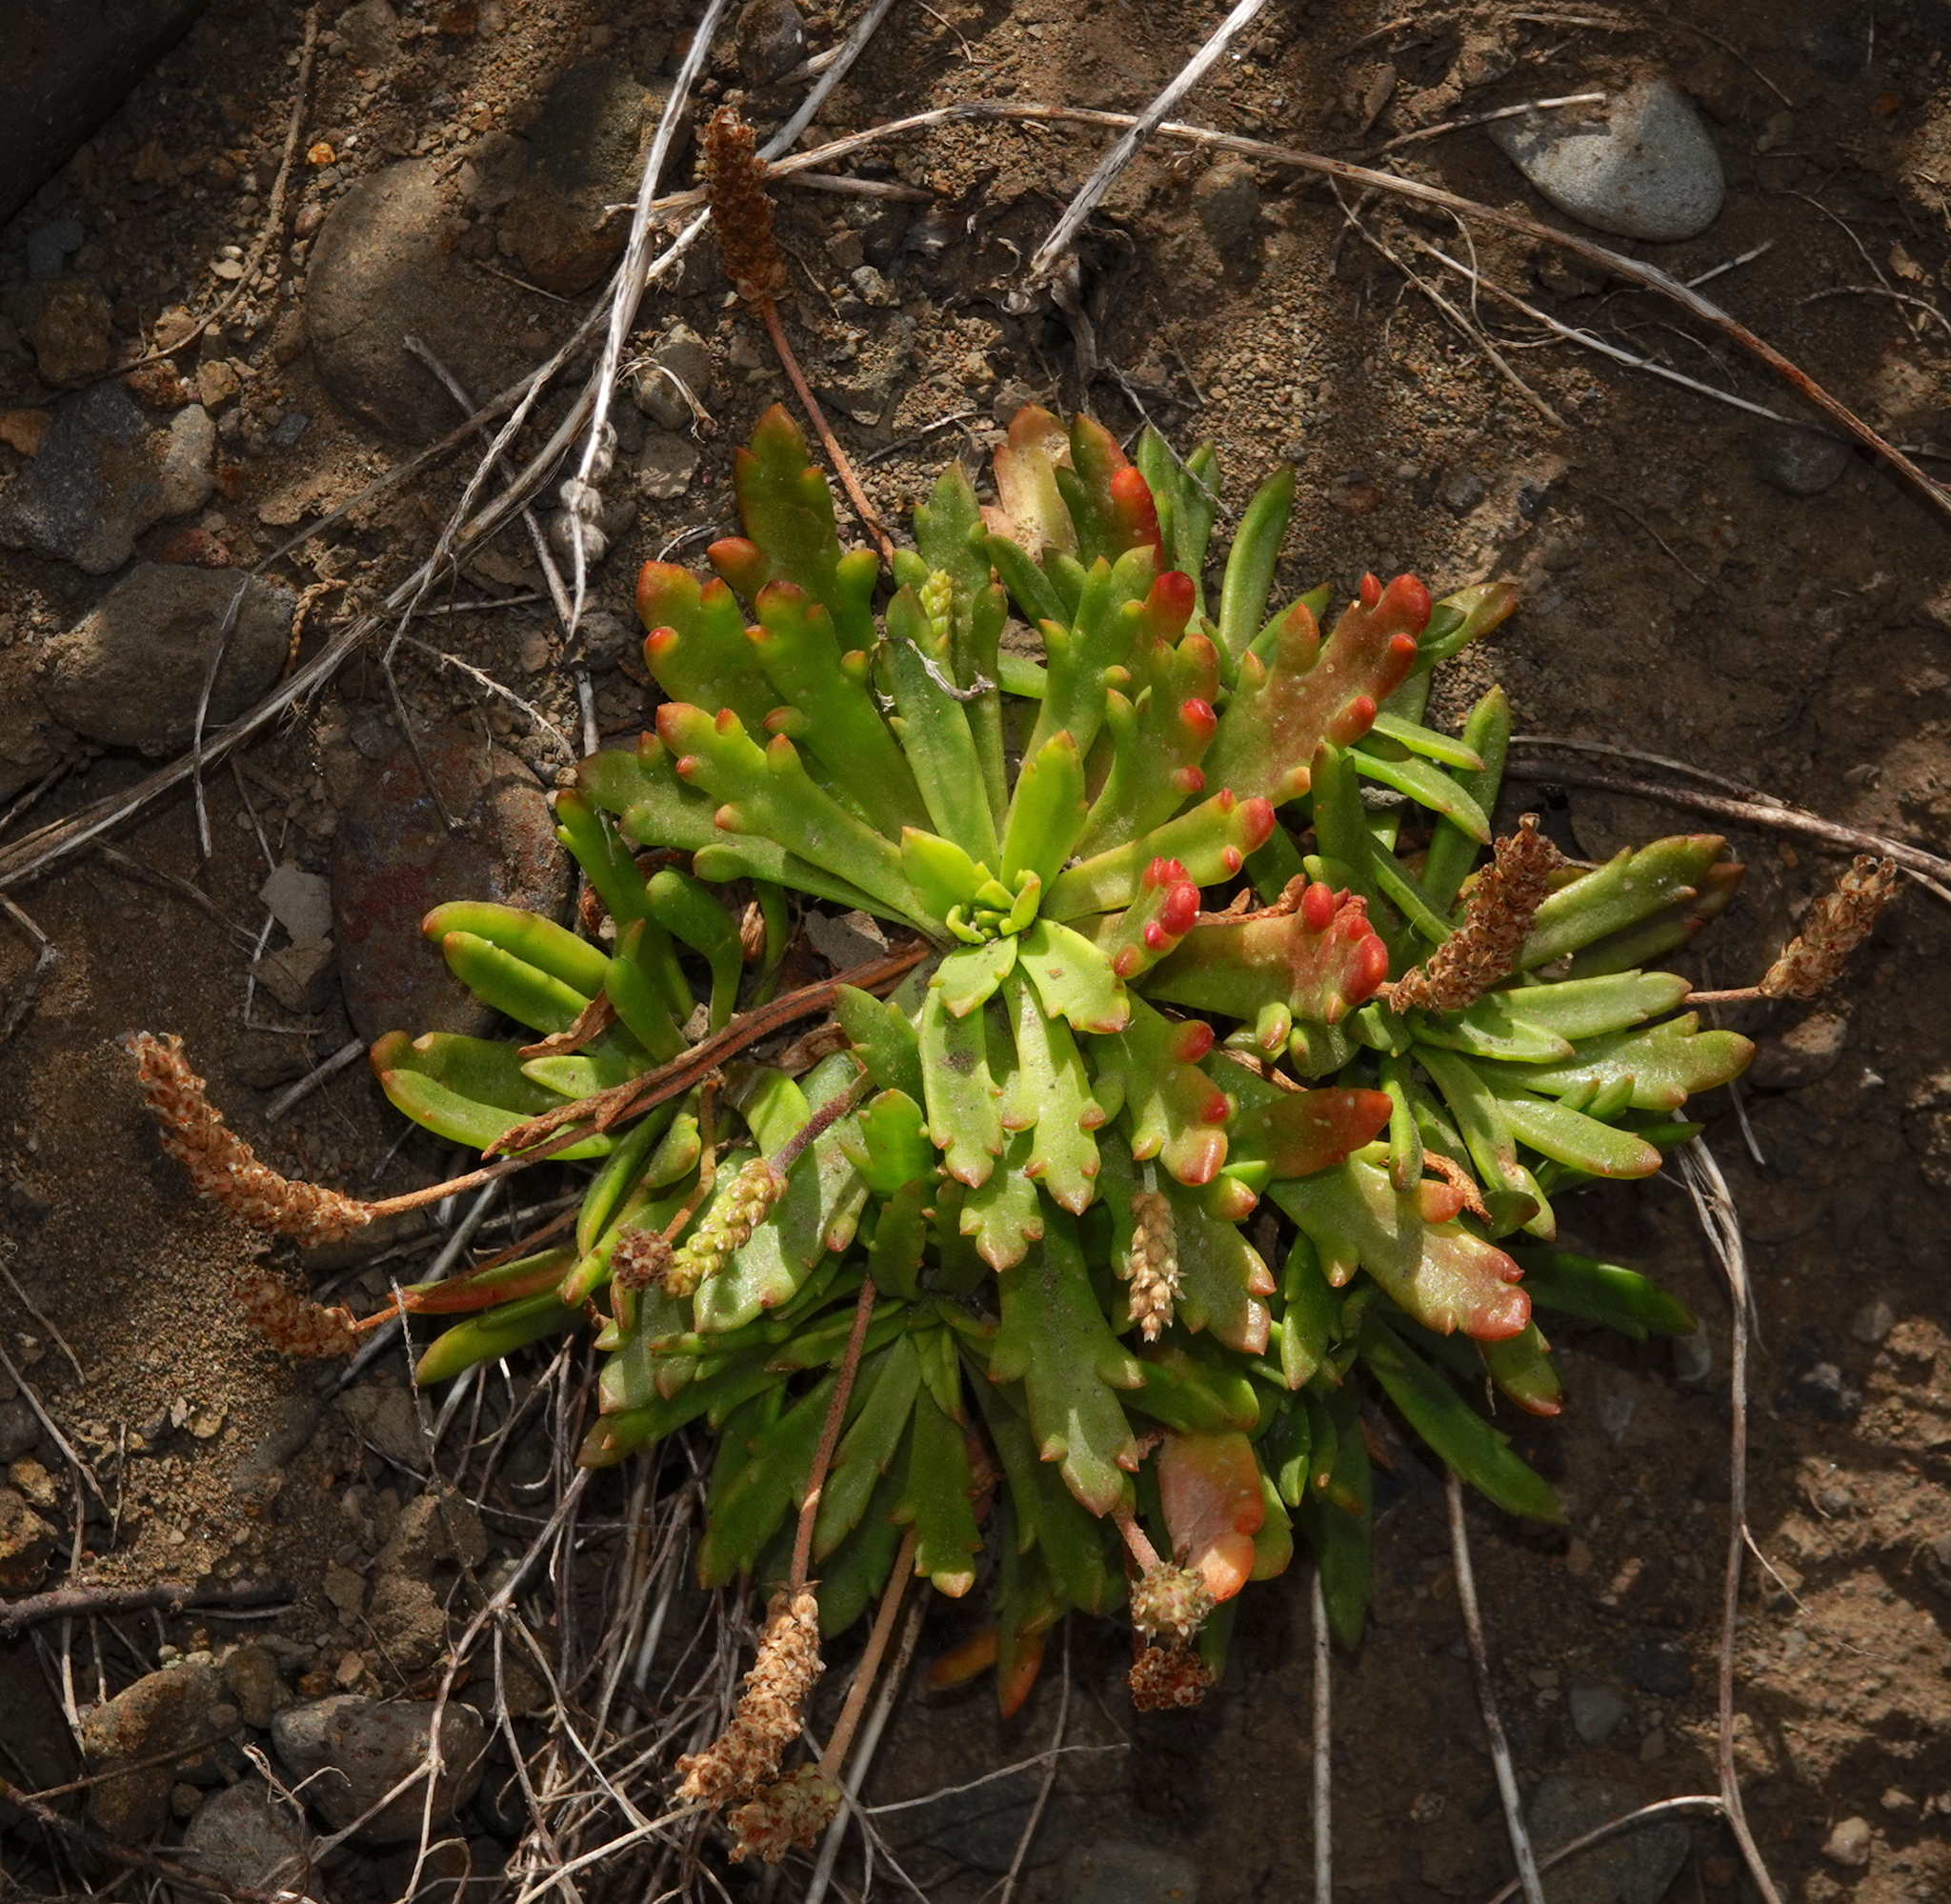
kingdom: Plantae
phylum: Tracheophyta
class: Magnoliopsida
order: Lamiales
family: Plantaginaceae
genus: Plantago
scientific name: Plantago coronopus
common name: Buck's-horn plantain
